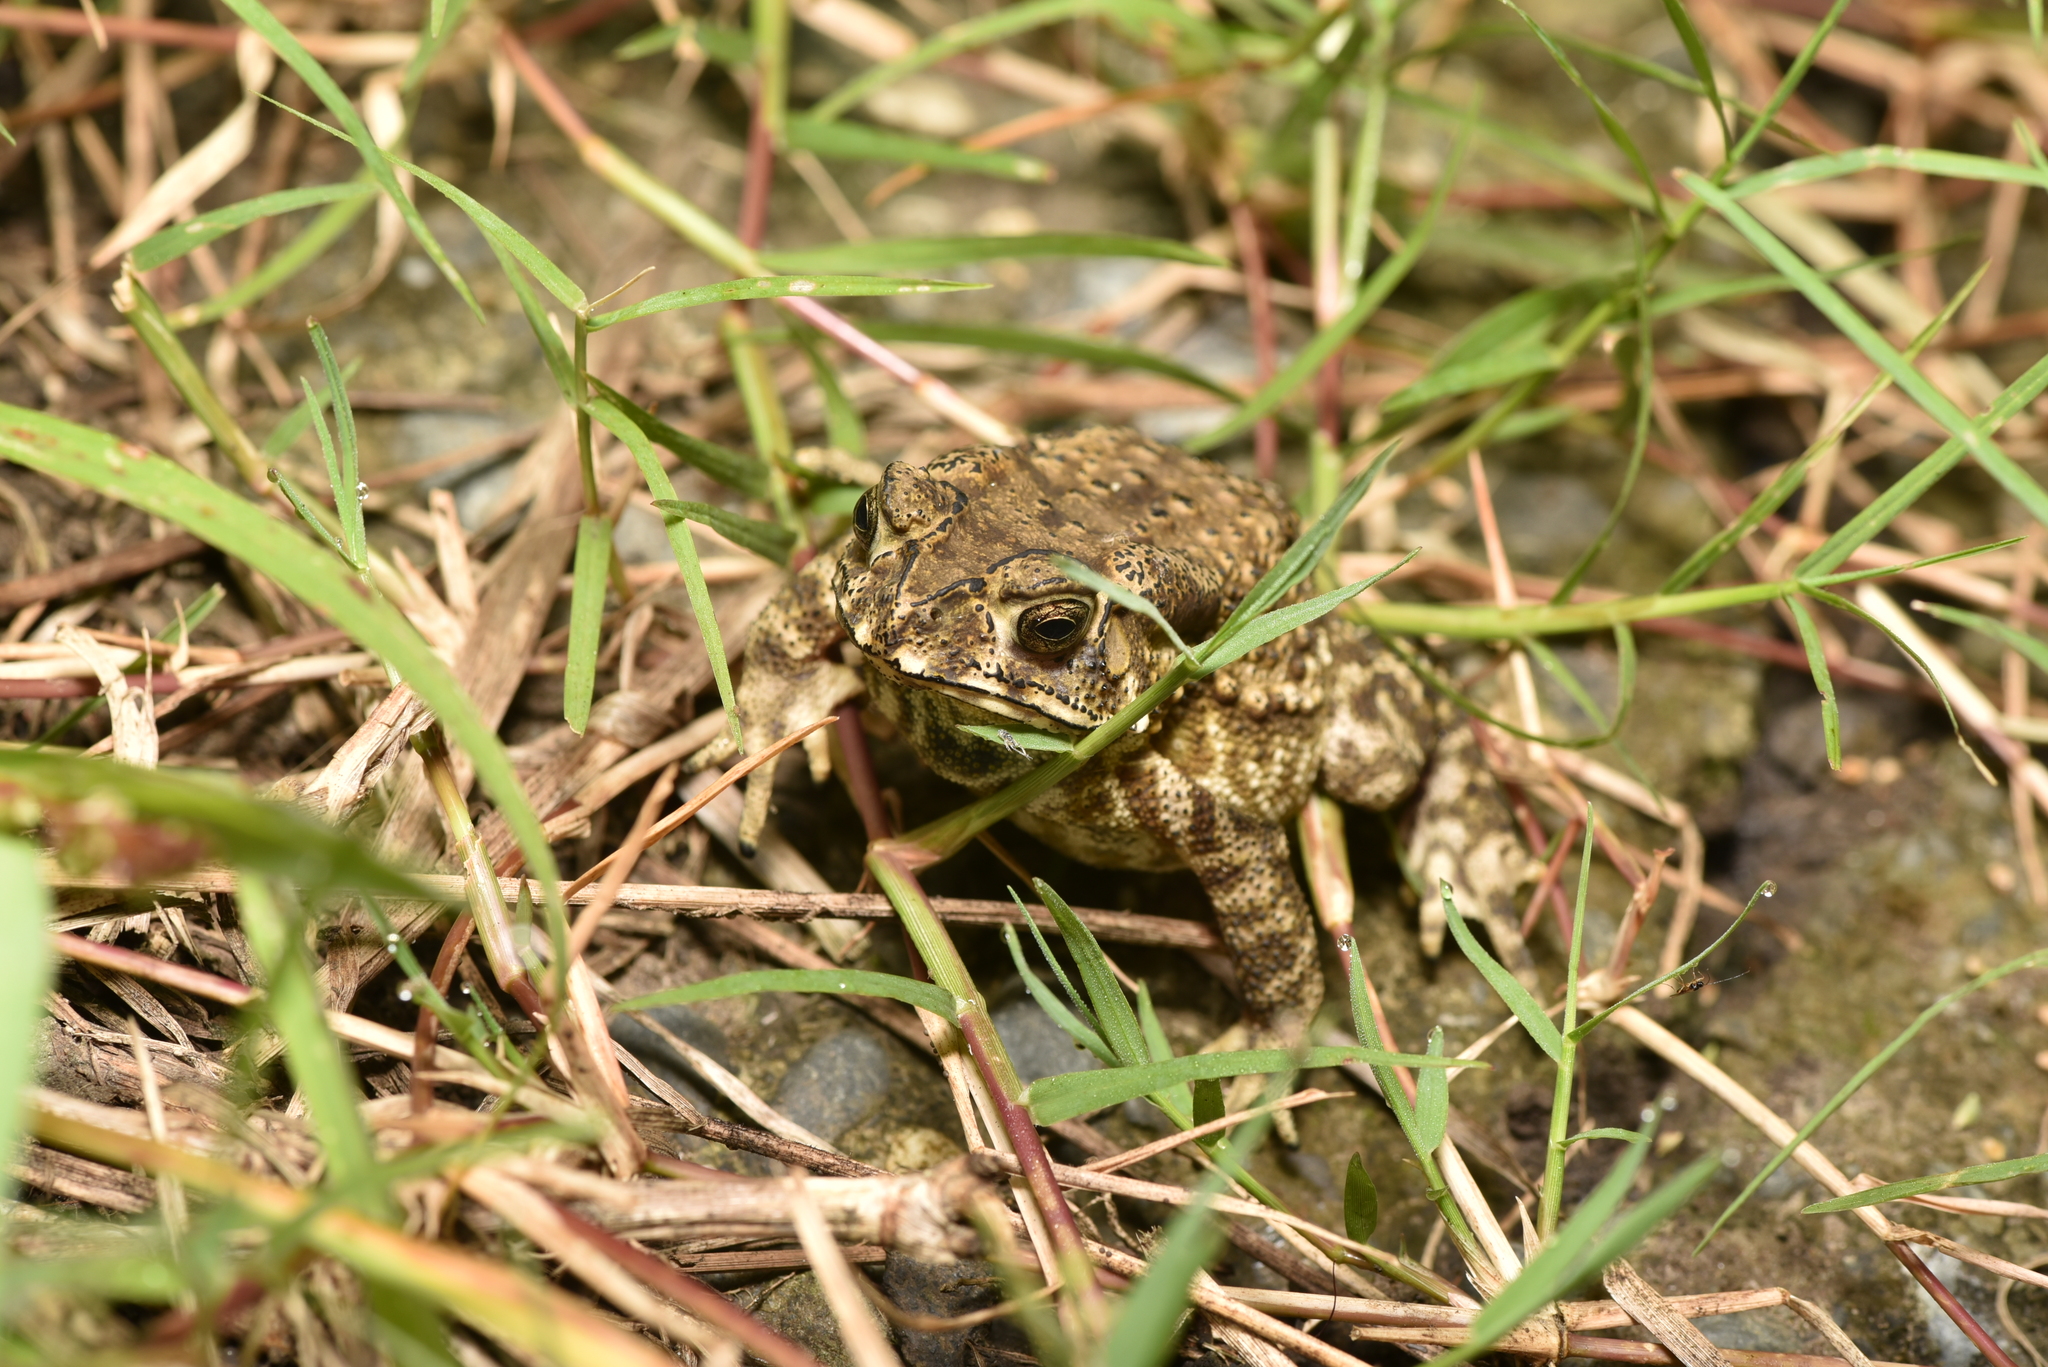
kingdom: Animalia
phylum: Chordata
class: Amphibia
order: Anura
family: Bufonidae
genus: Duttaphrynus
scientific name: Duttaphrynus melanostictus
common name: Common sunda toad
